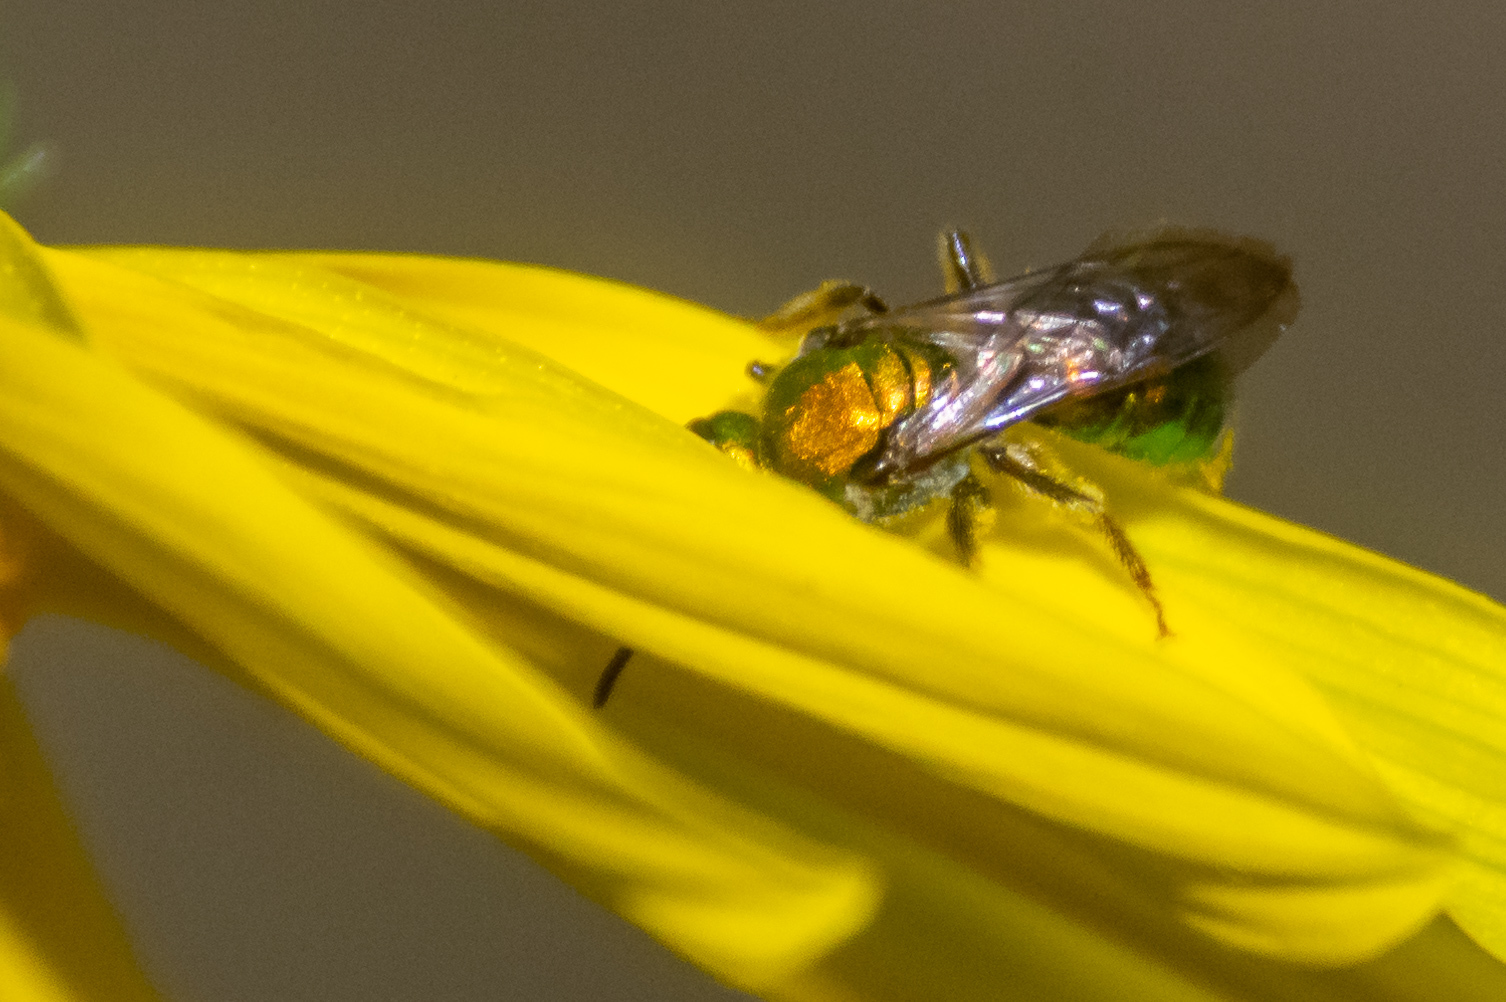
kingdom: Animalia
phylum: Arthropoda
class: Insecta
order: Hymenoptera
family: Halictidae
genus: Augochlora
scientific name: Augochlora pura
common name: Pure green sweat bee
